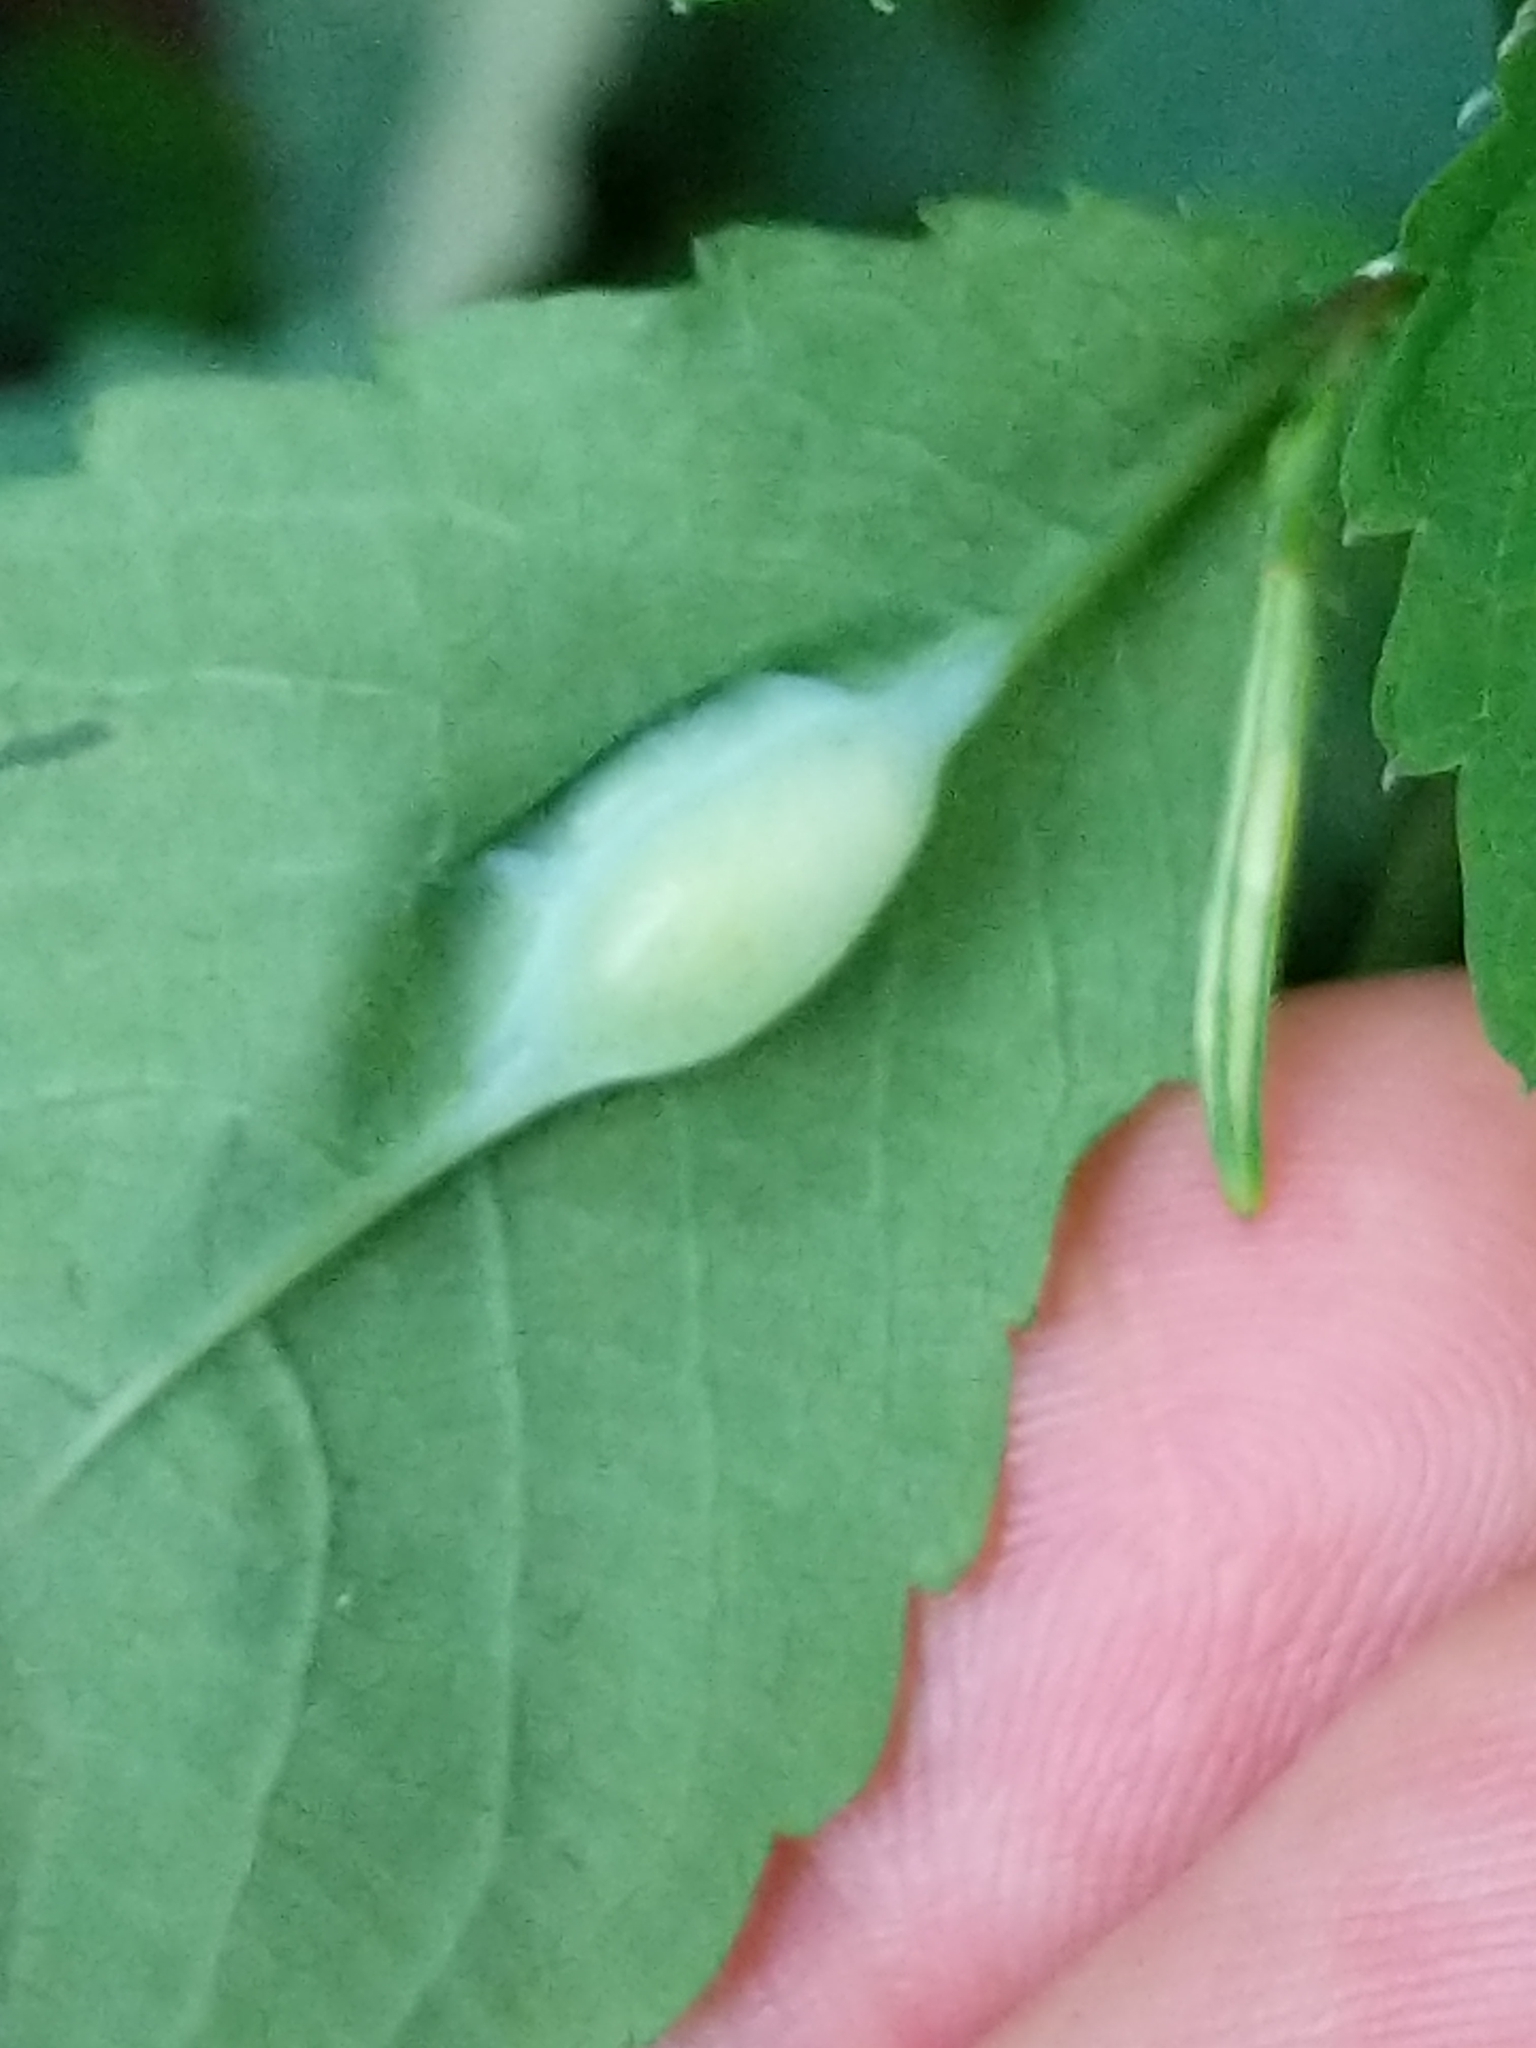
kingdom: Animalia
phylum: Arthropoda
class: Insecta
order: Diptera
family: Cecidomyiidae
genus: Neolasioptera
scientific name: Neolasioptera impatientifolia
